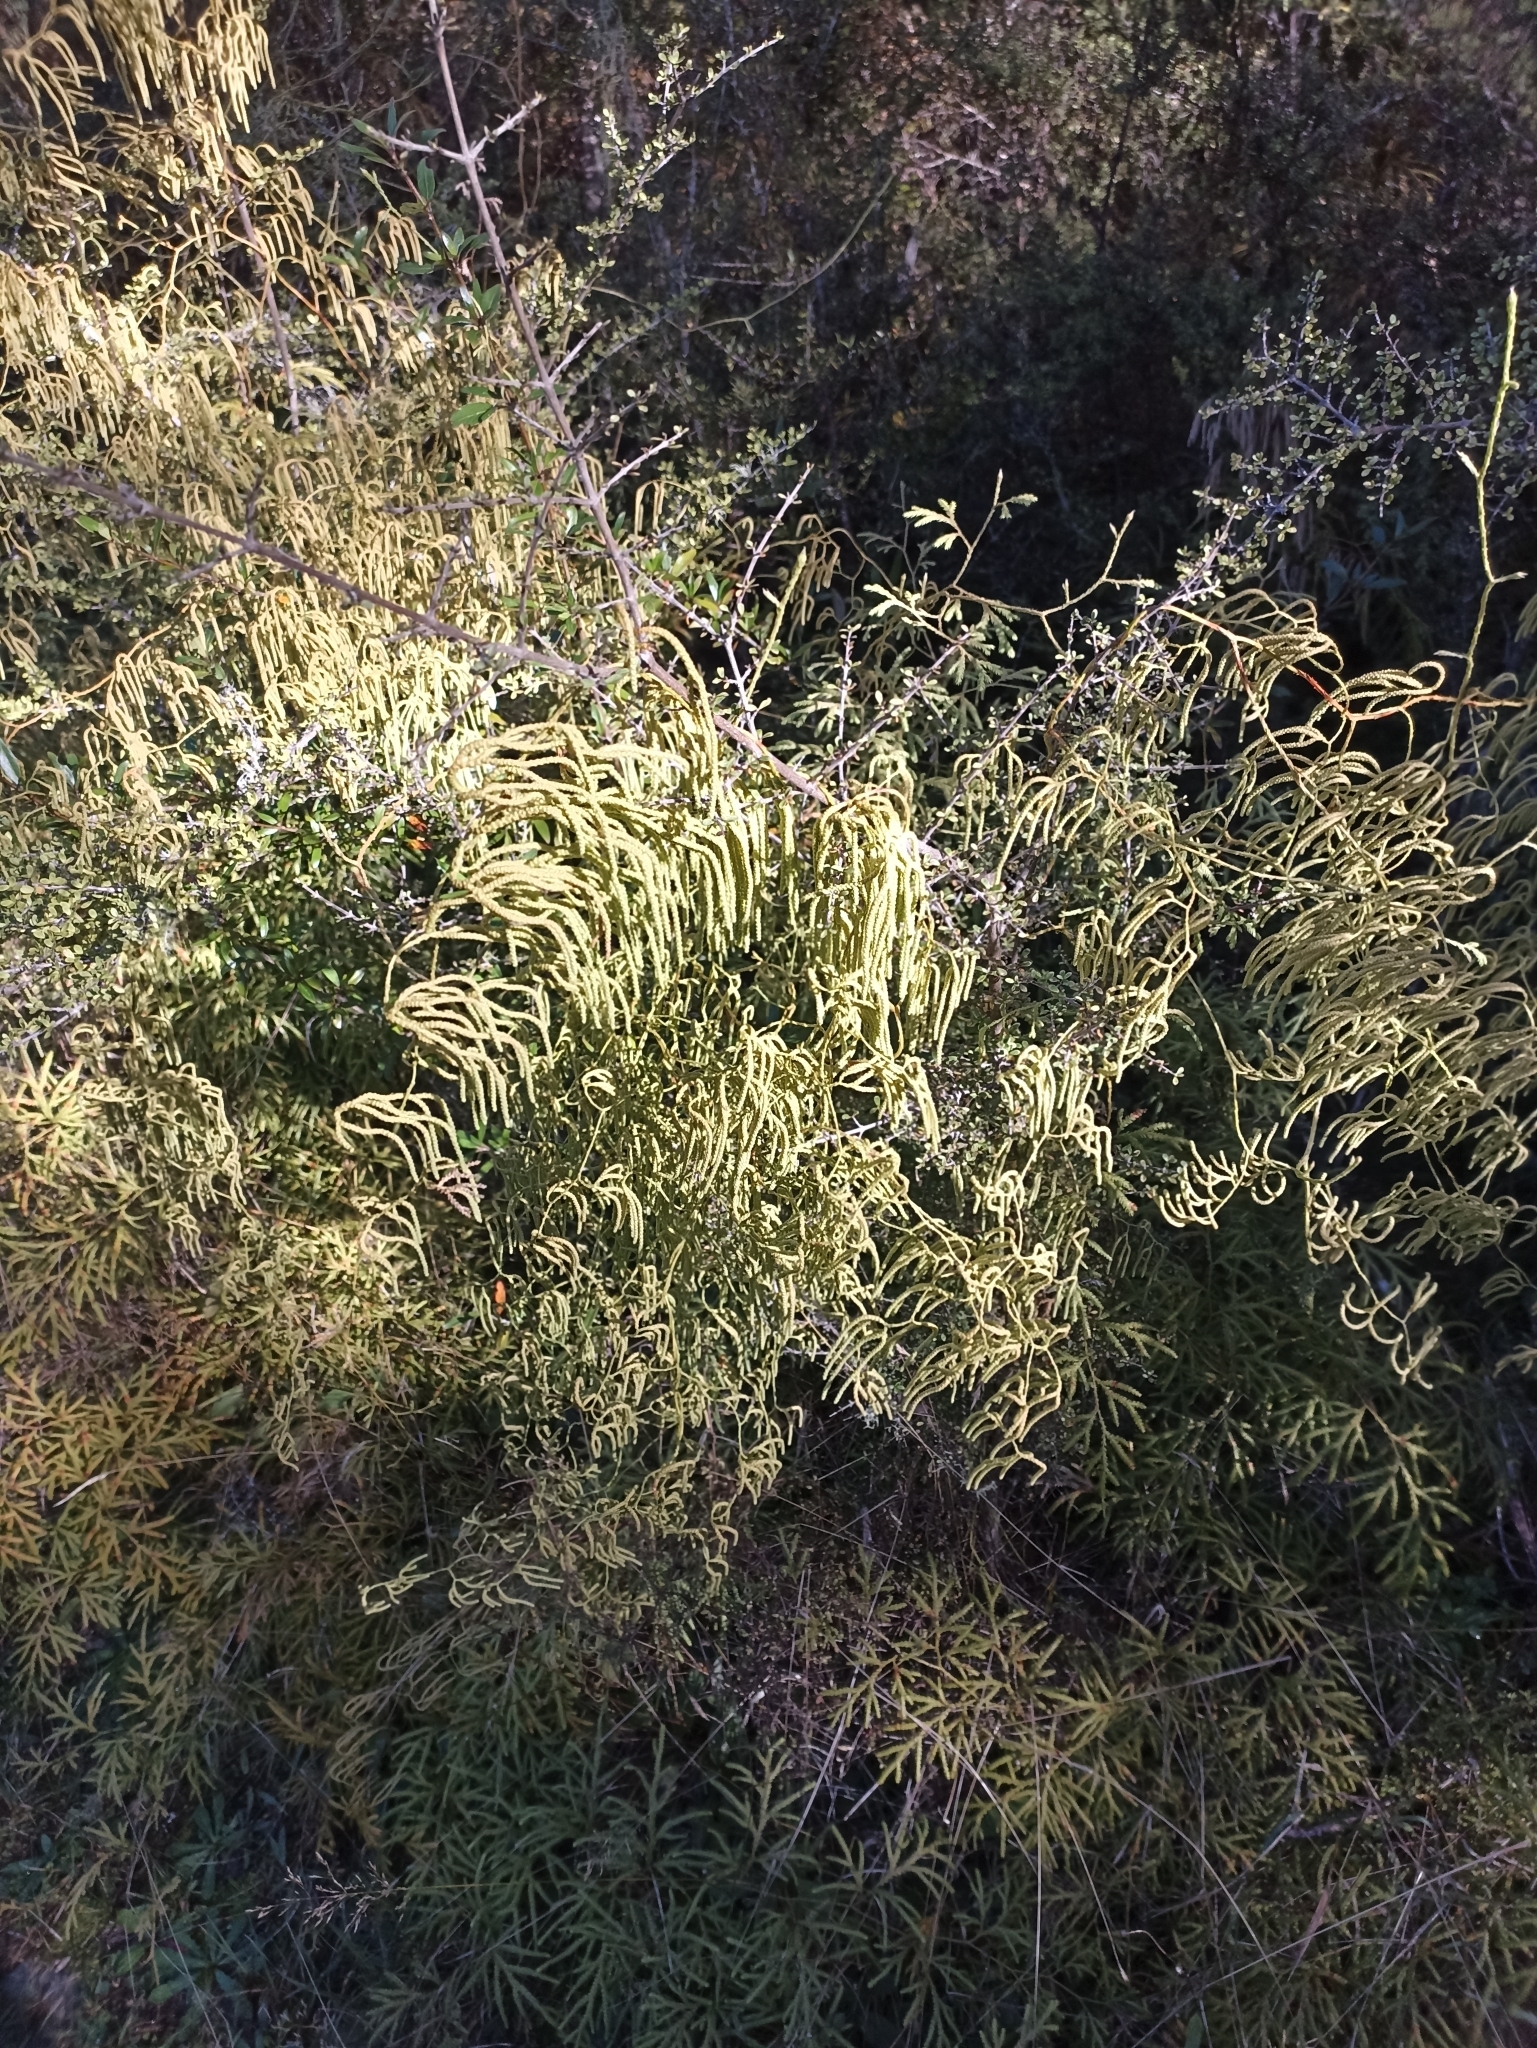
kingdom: Plantae
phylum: Tracheophyta
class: Lycopodiopsida
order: Lycopodiales
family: Lycopodiaceae
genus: Lycopodium
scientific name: Lycopodium volubile
